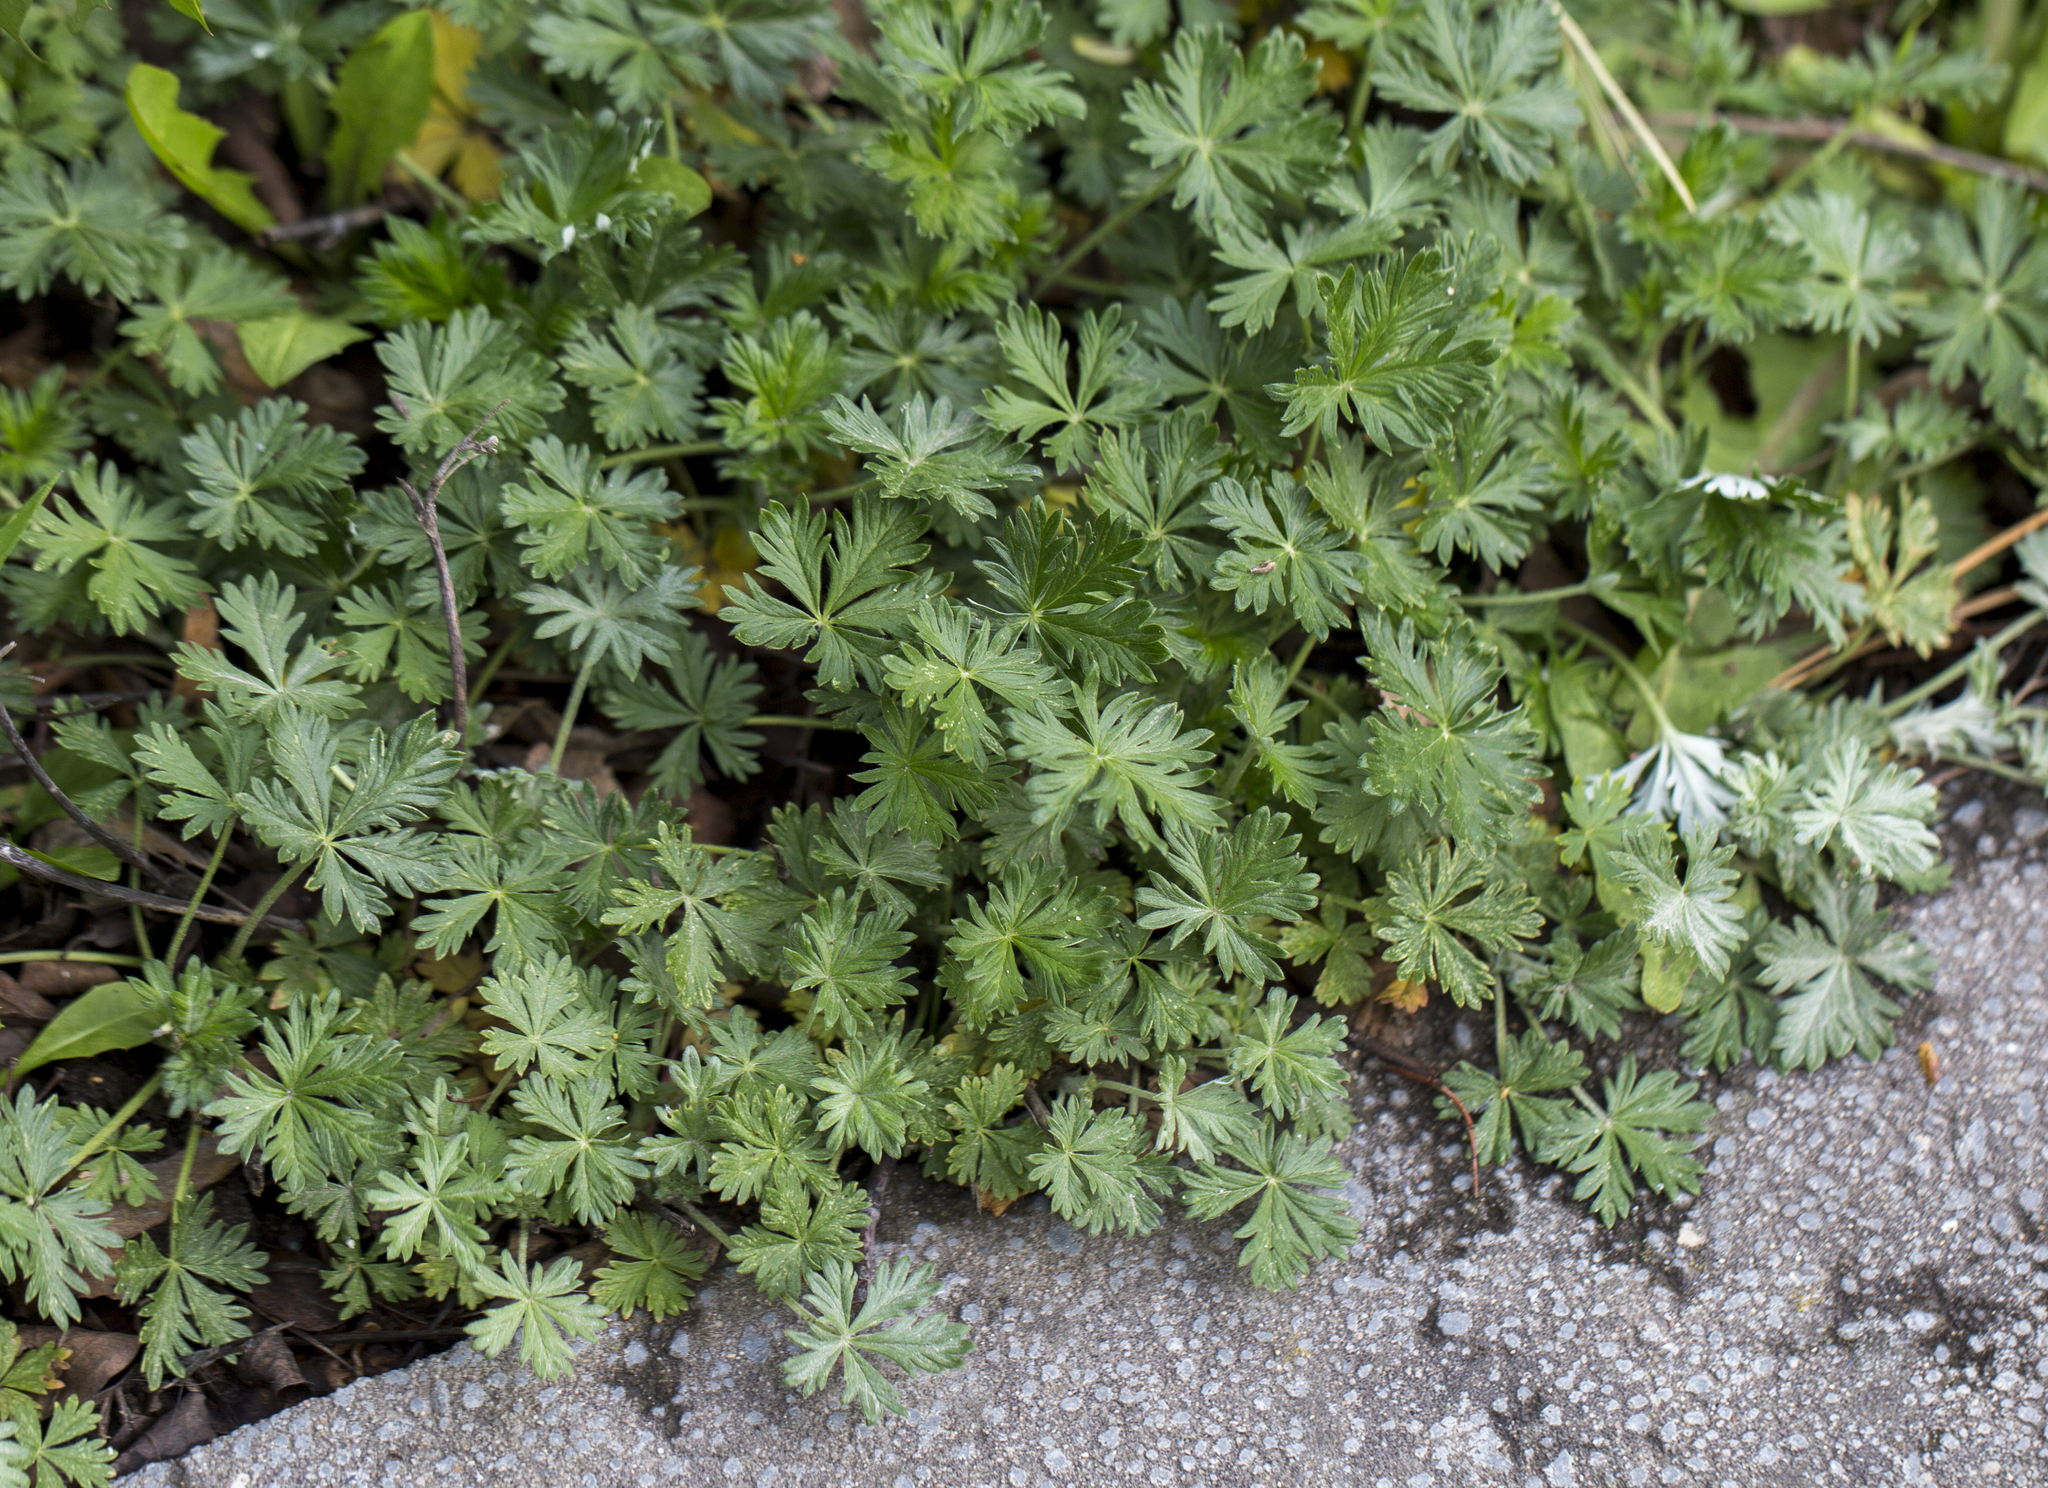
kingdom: Plantae
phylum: Tracheophyta
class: Magnoliopsida
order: Rosales
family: Rosaceae
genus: Potentilla
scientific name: Potentilla argentea
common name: Hoary cinquefoil
